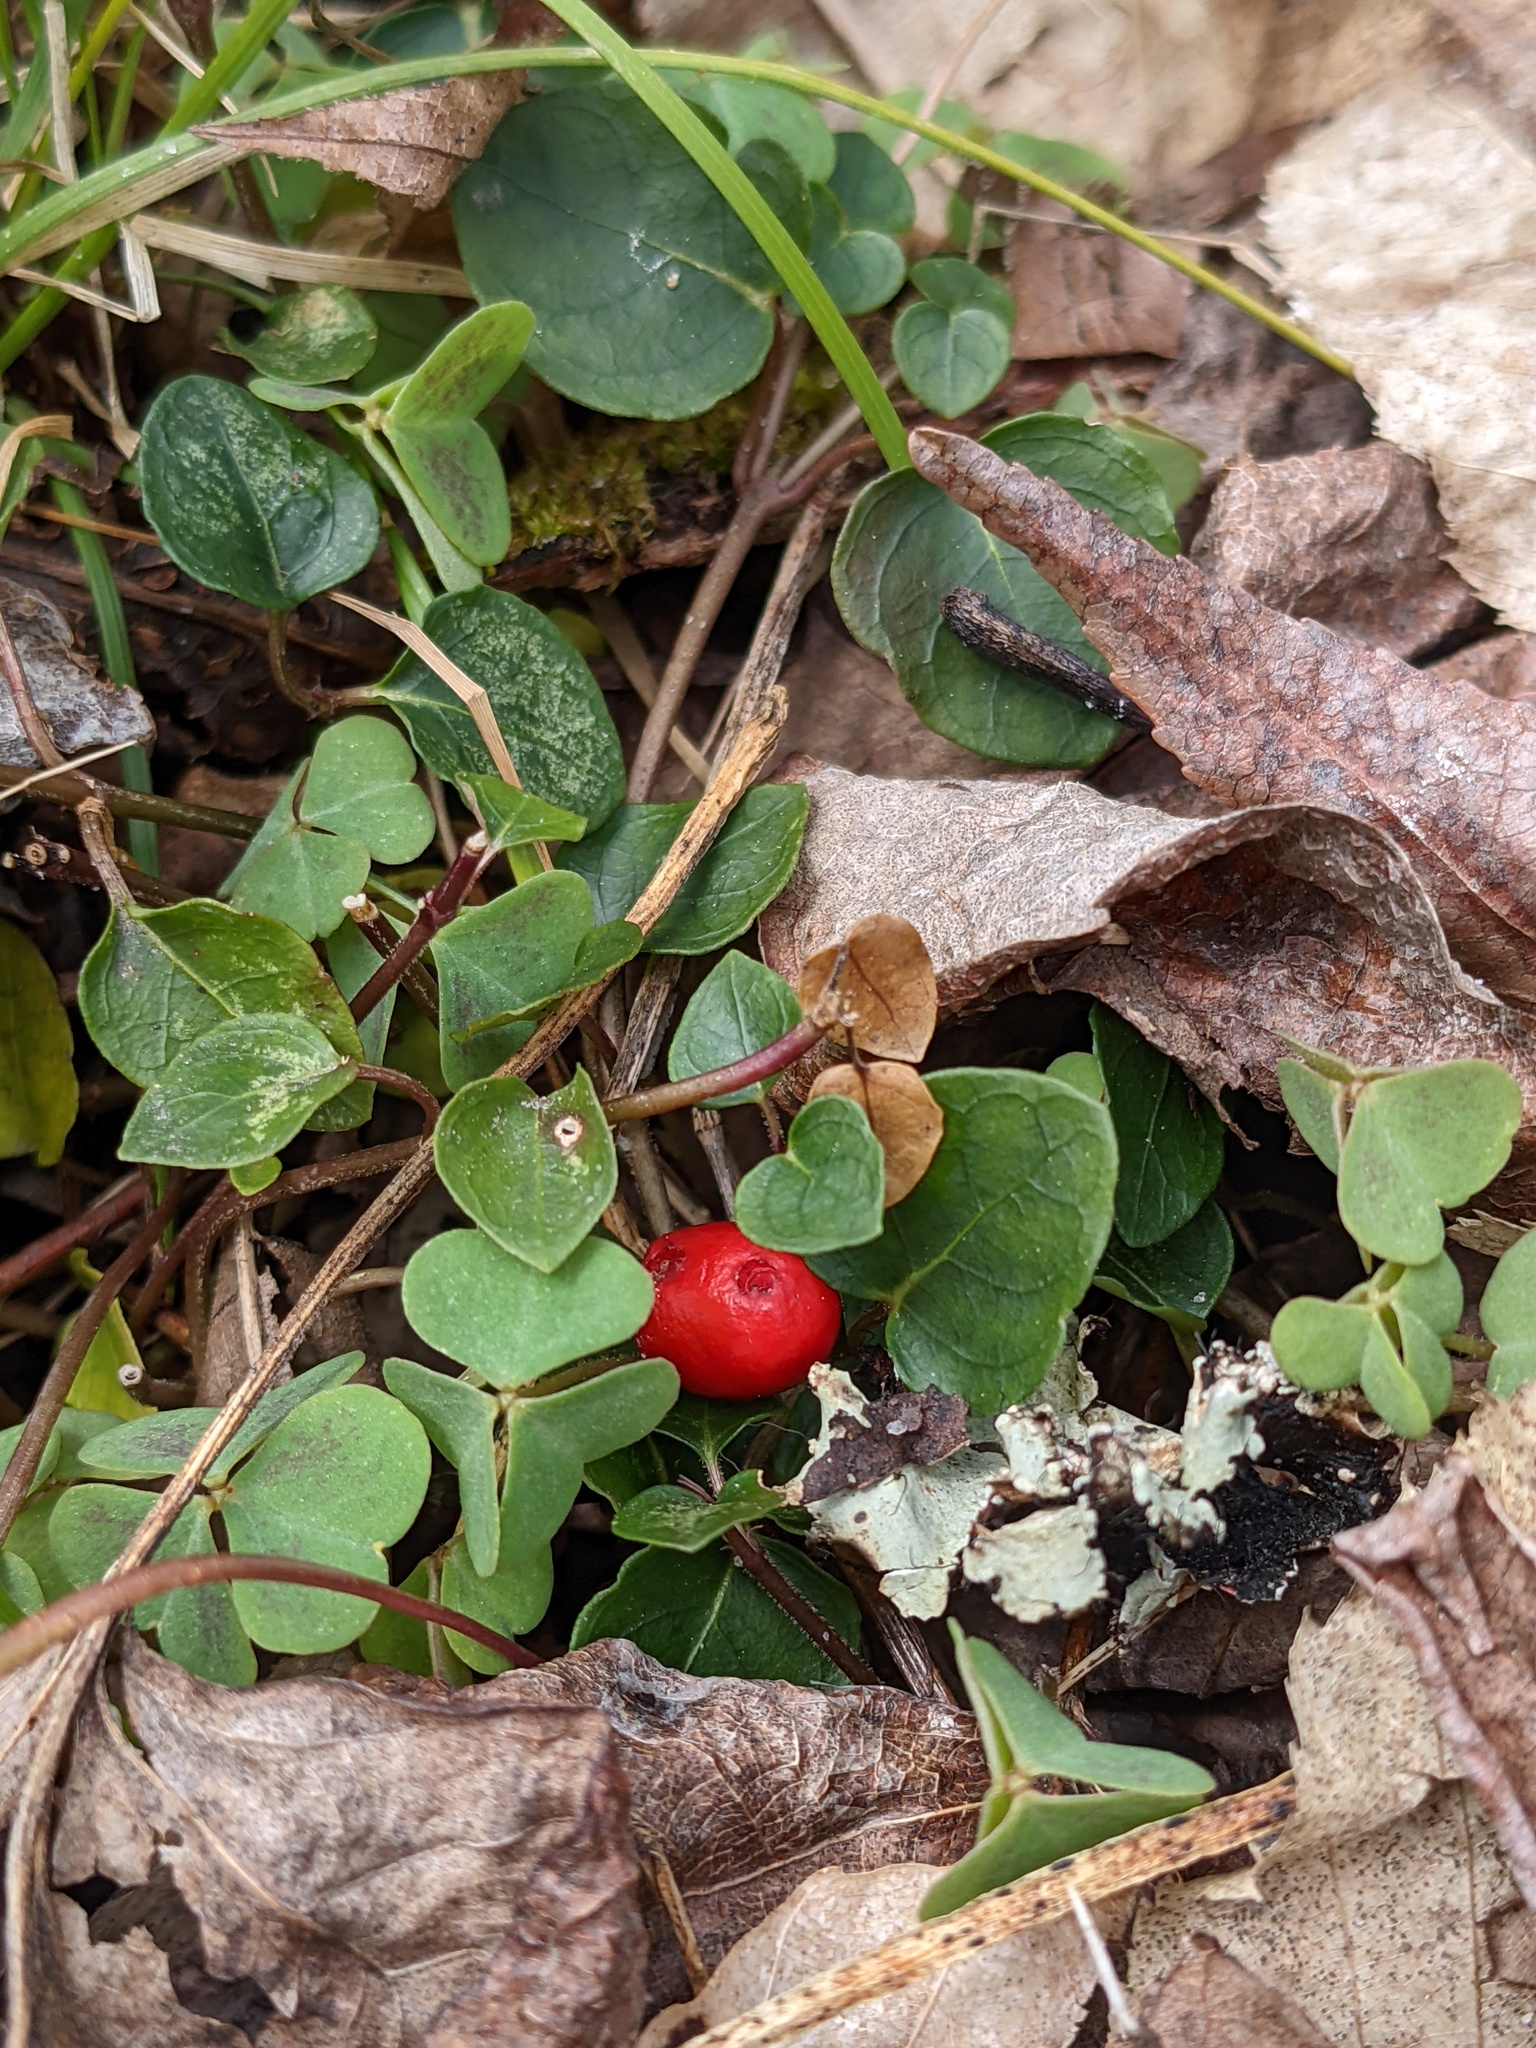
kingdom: Plantae
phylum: Tracheophyta
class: Magnoliopsida
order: Gentianales
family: Rubiaceae
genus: Mitchella
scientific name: Mitchella repens
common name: Partridge-berry
